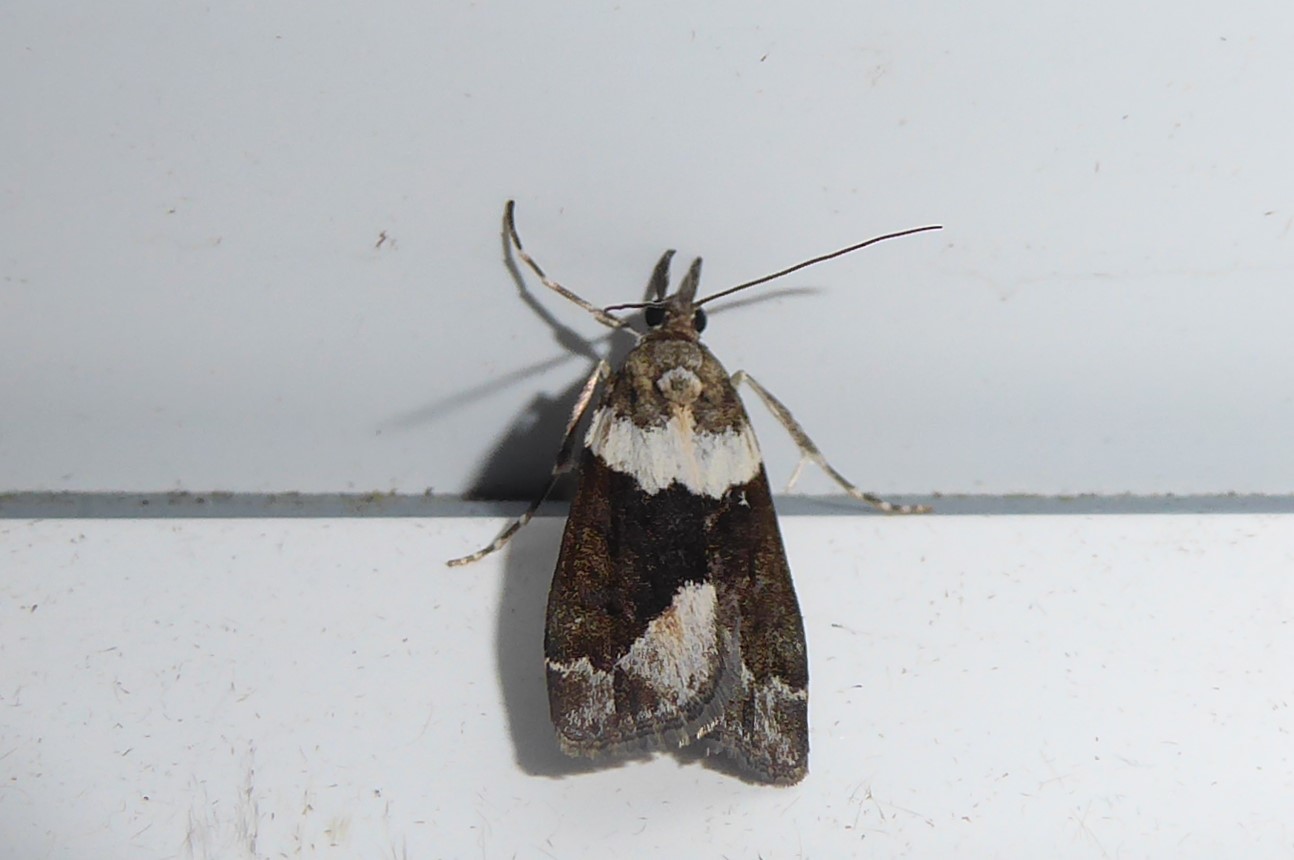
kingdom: Animalia
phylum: Arthropoda
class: Insecta
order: Lepidoptera
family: Crambidae
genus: Eudonia
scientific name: Eudonia submarginalis
